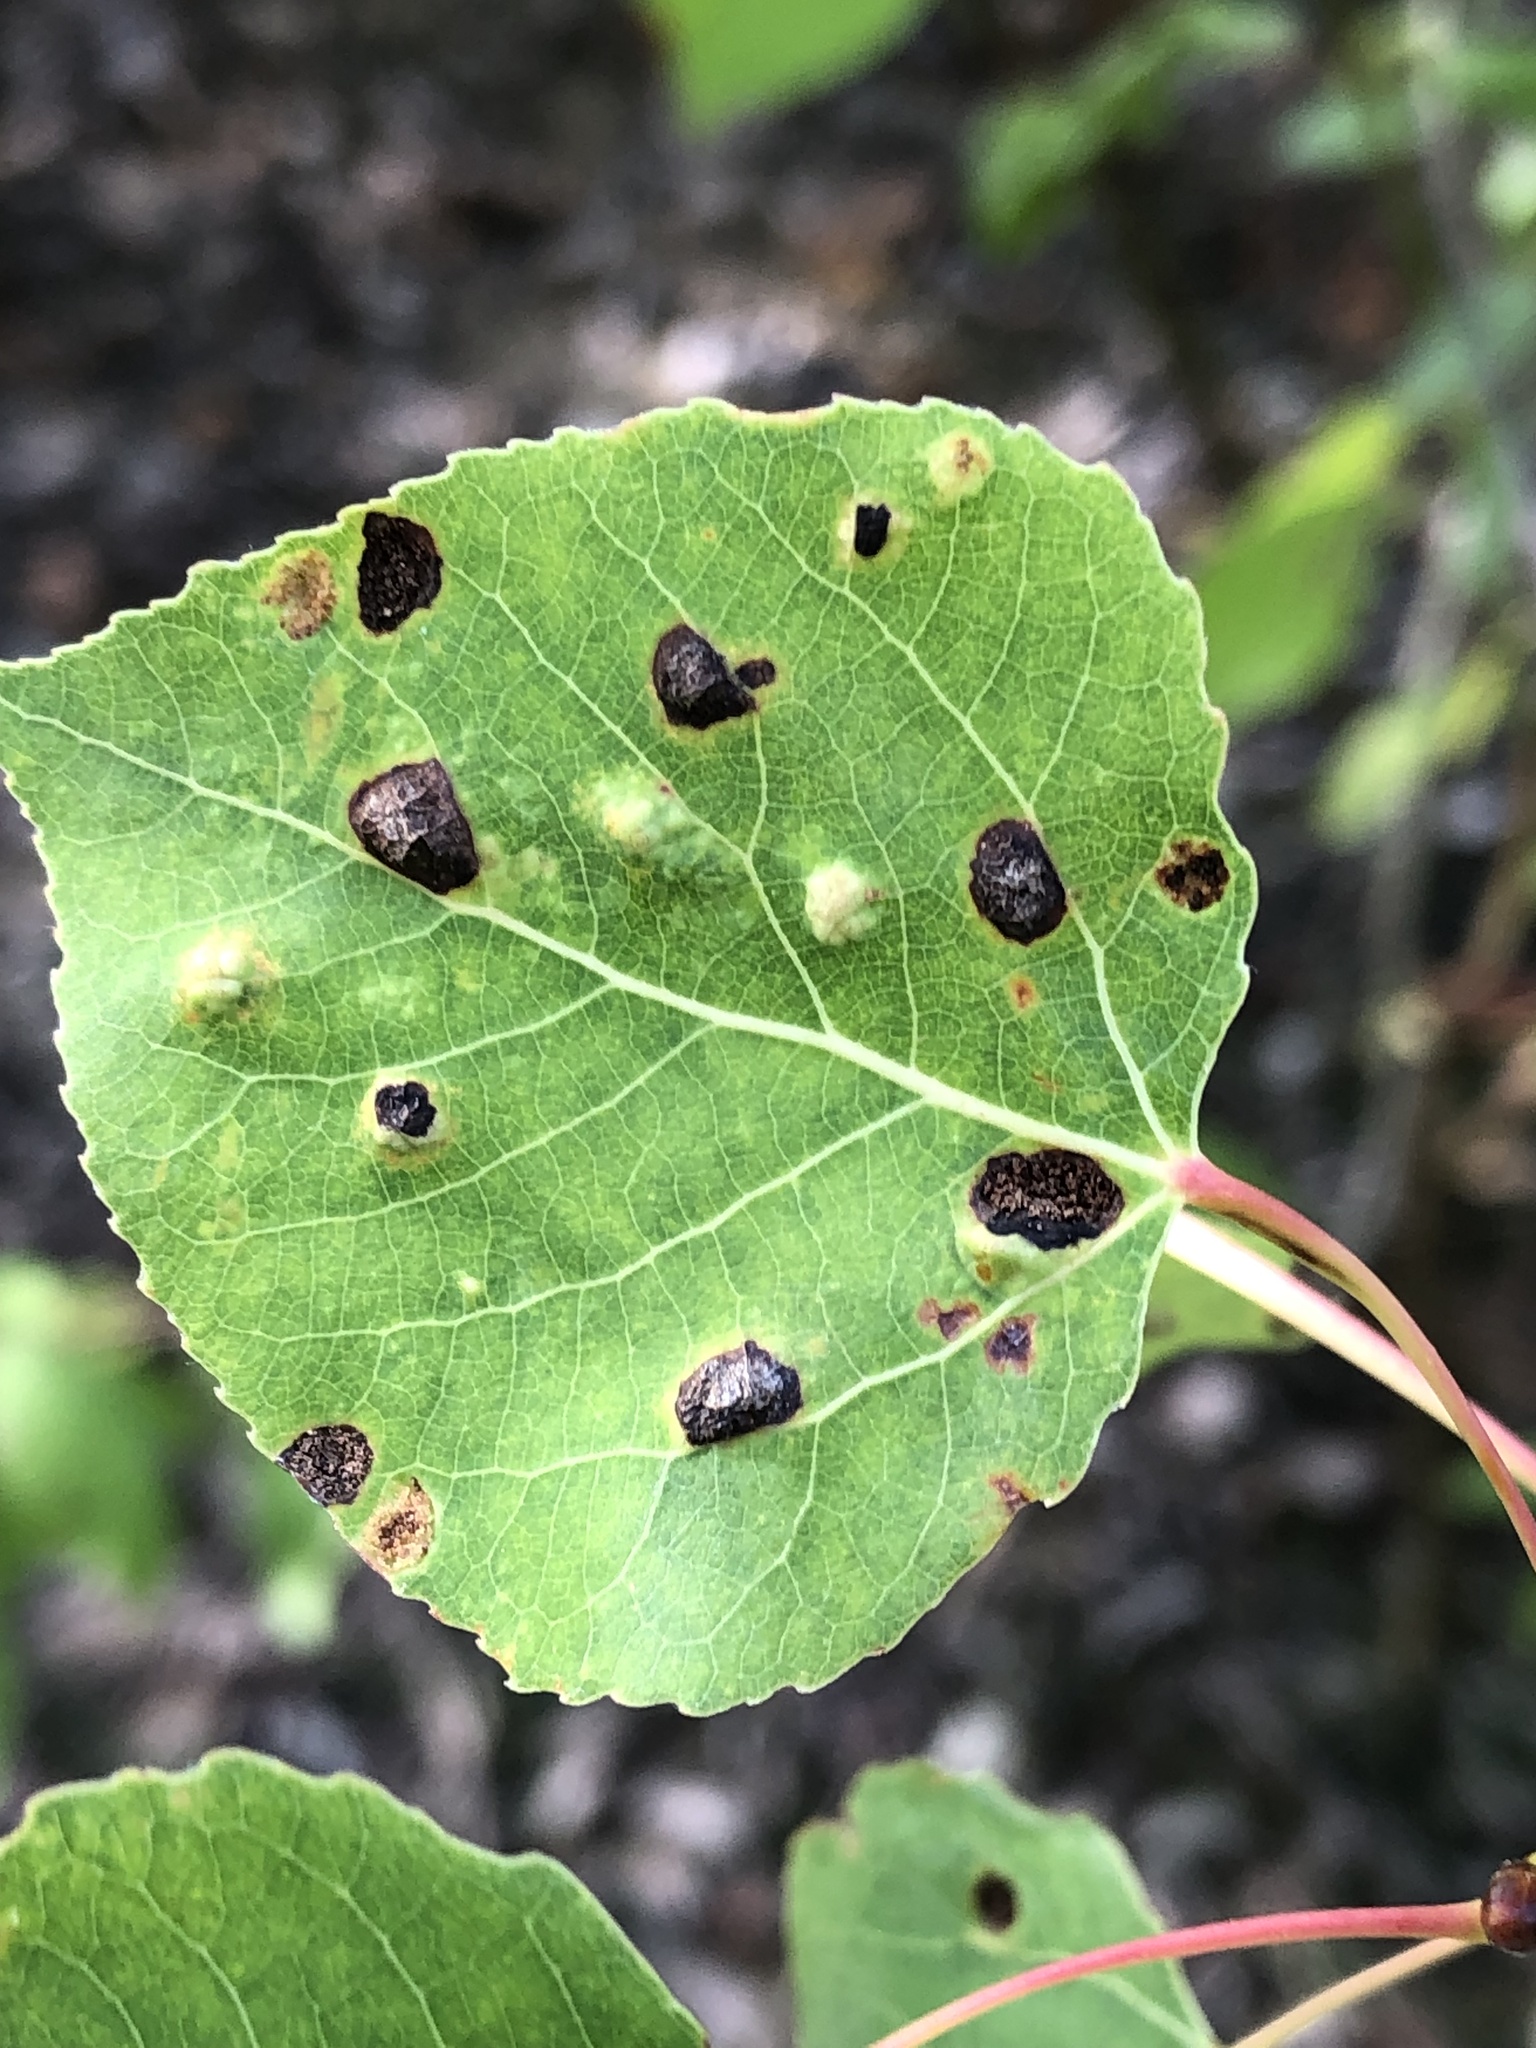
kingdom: Animalia
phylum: Arthropoda
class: Arachnida
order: Trombidiformes
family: Eriophyidae
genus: Phyllocoptes
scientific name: Phyllocoptes
